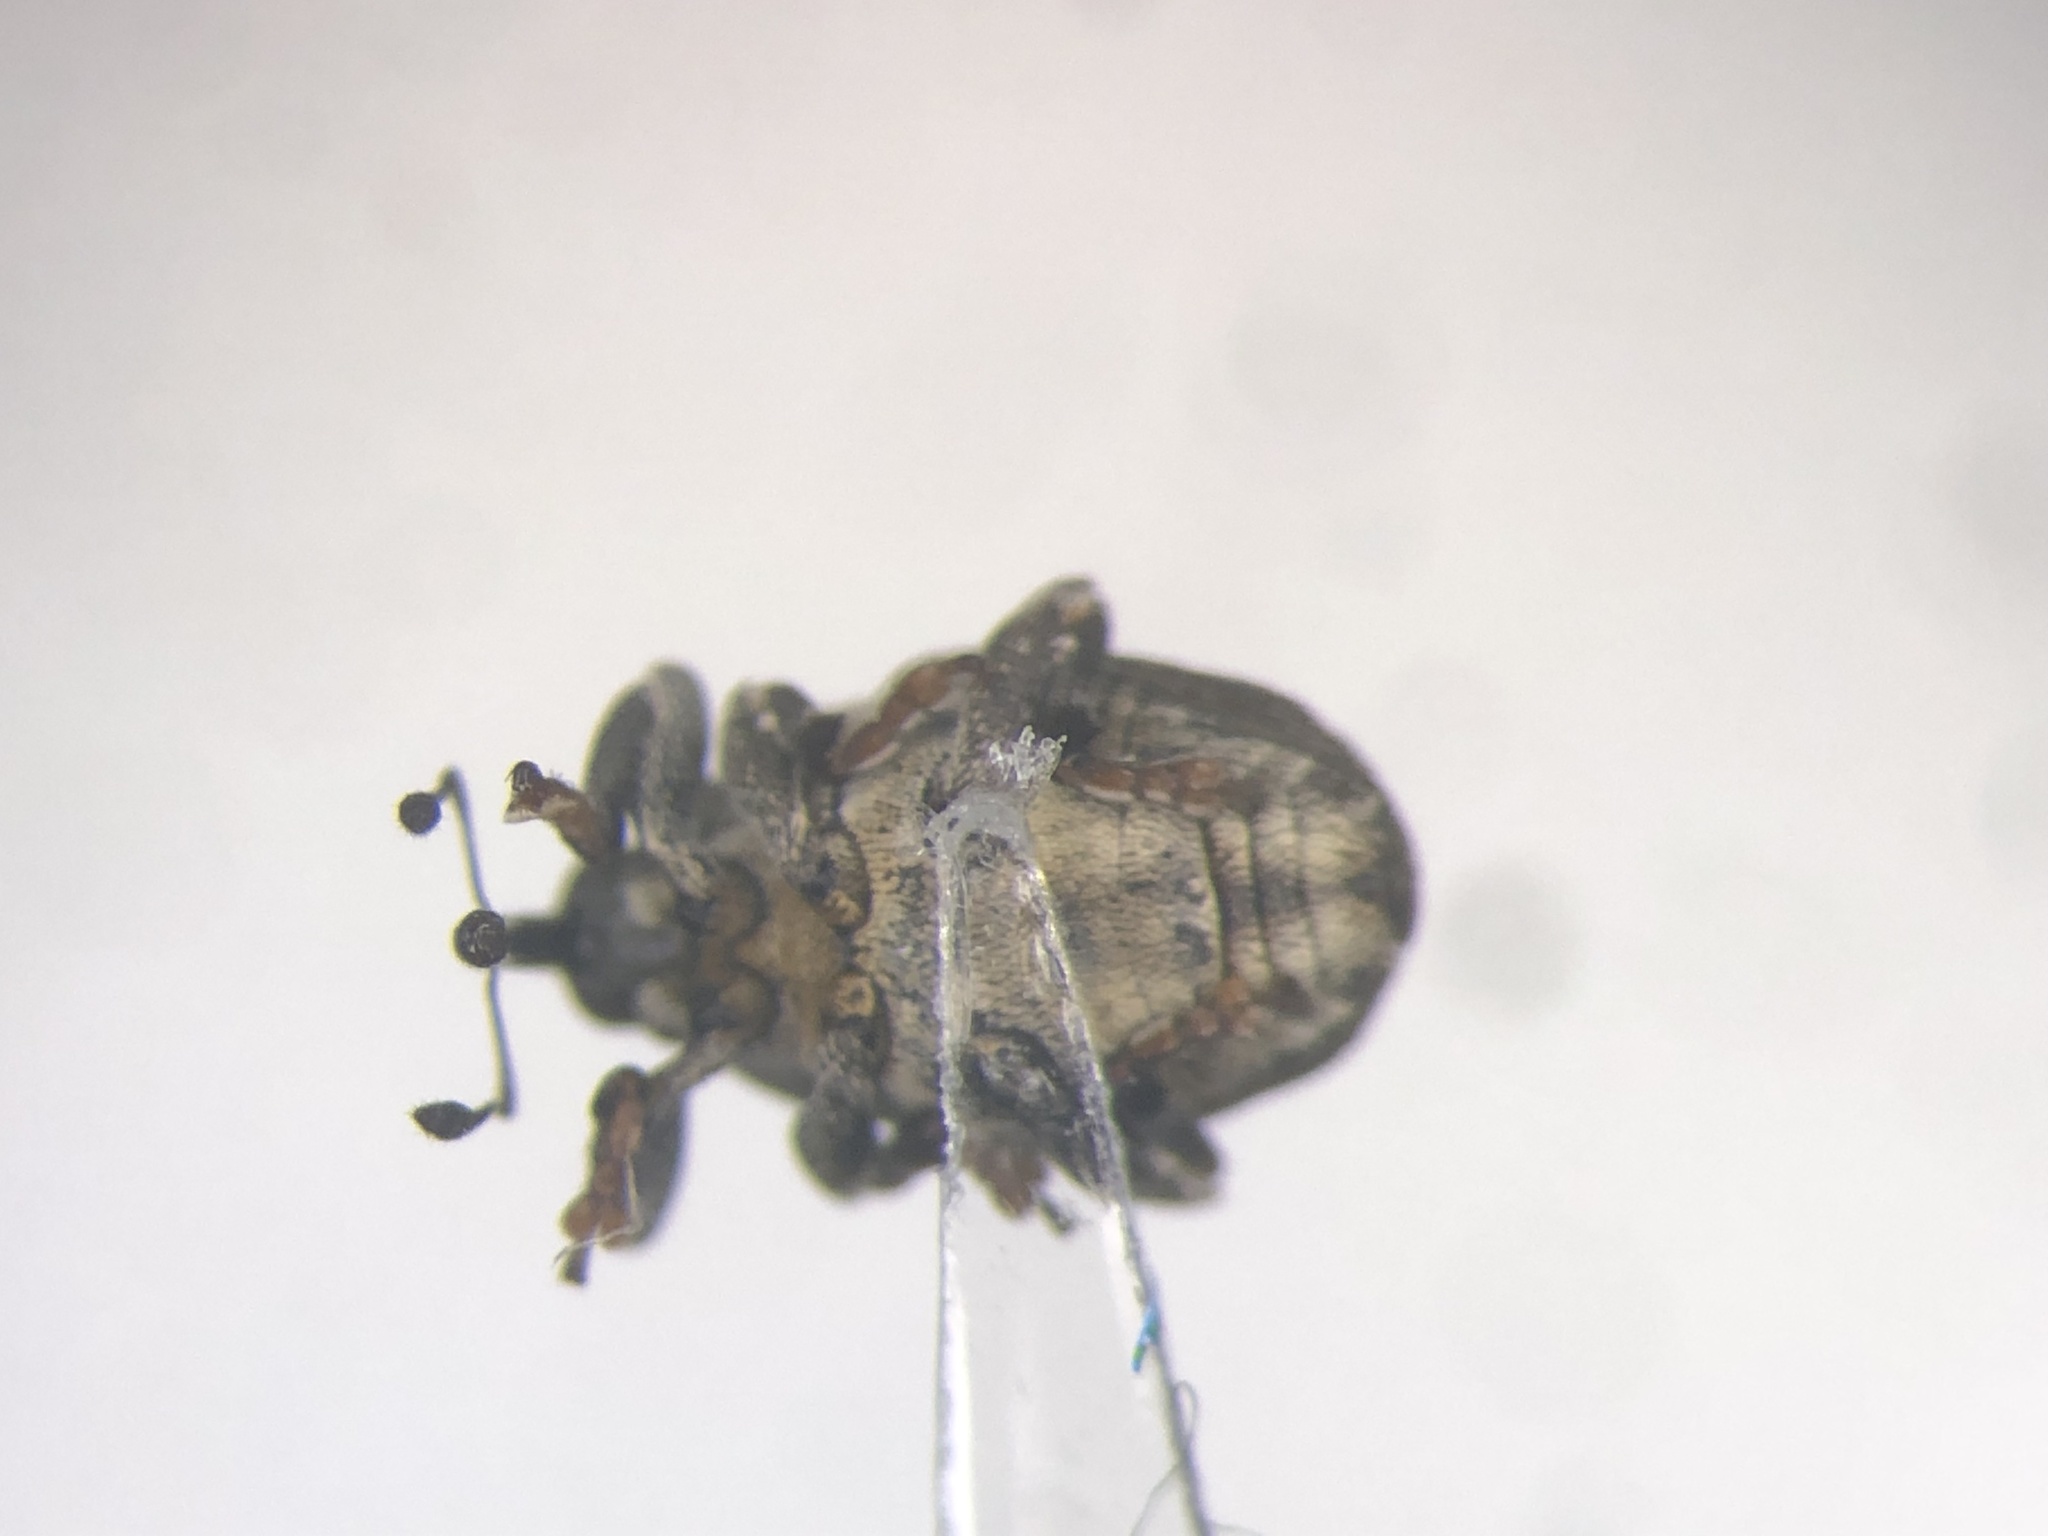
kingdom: Animalia
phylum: Arthropoda
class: Insecta
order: Coleoptera
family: Curculionidae
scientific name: Curculionidae
